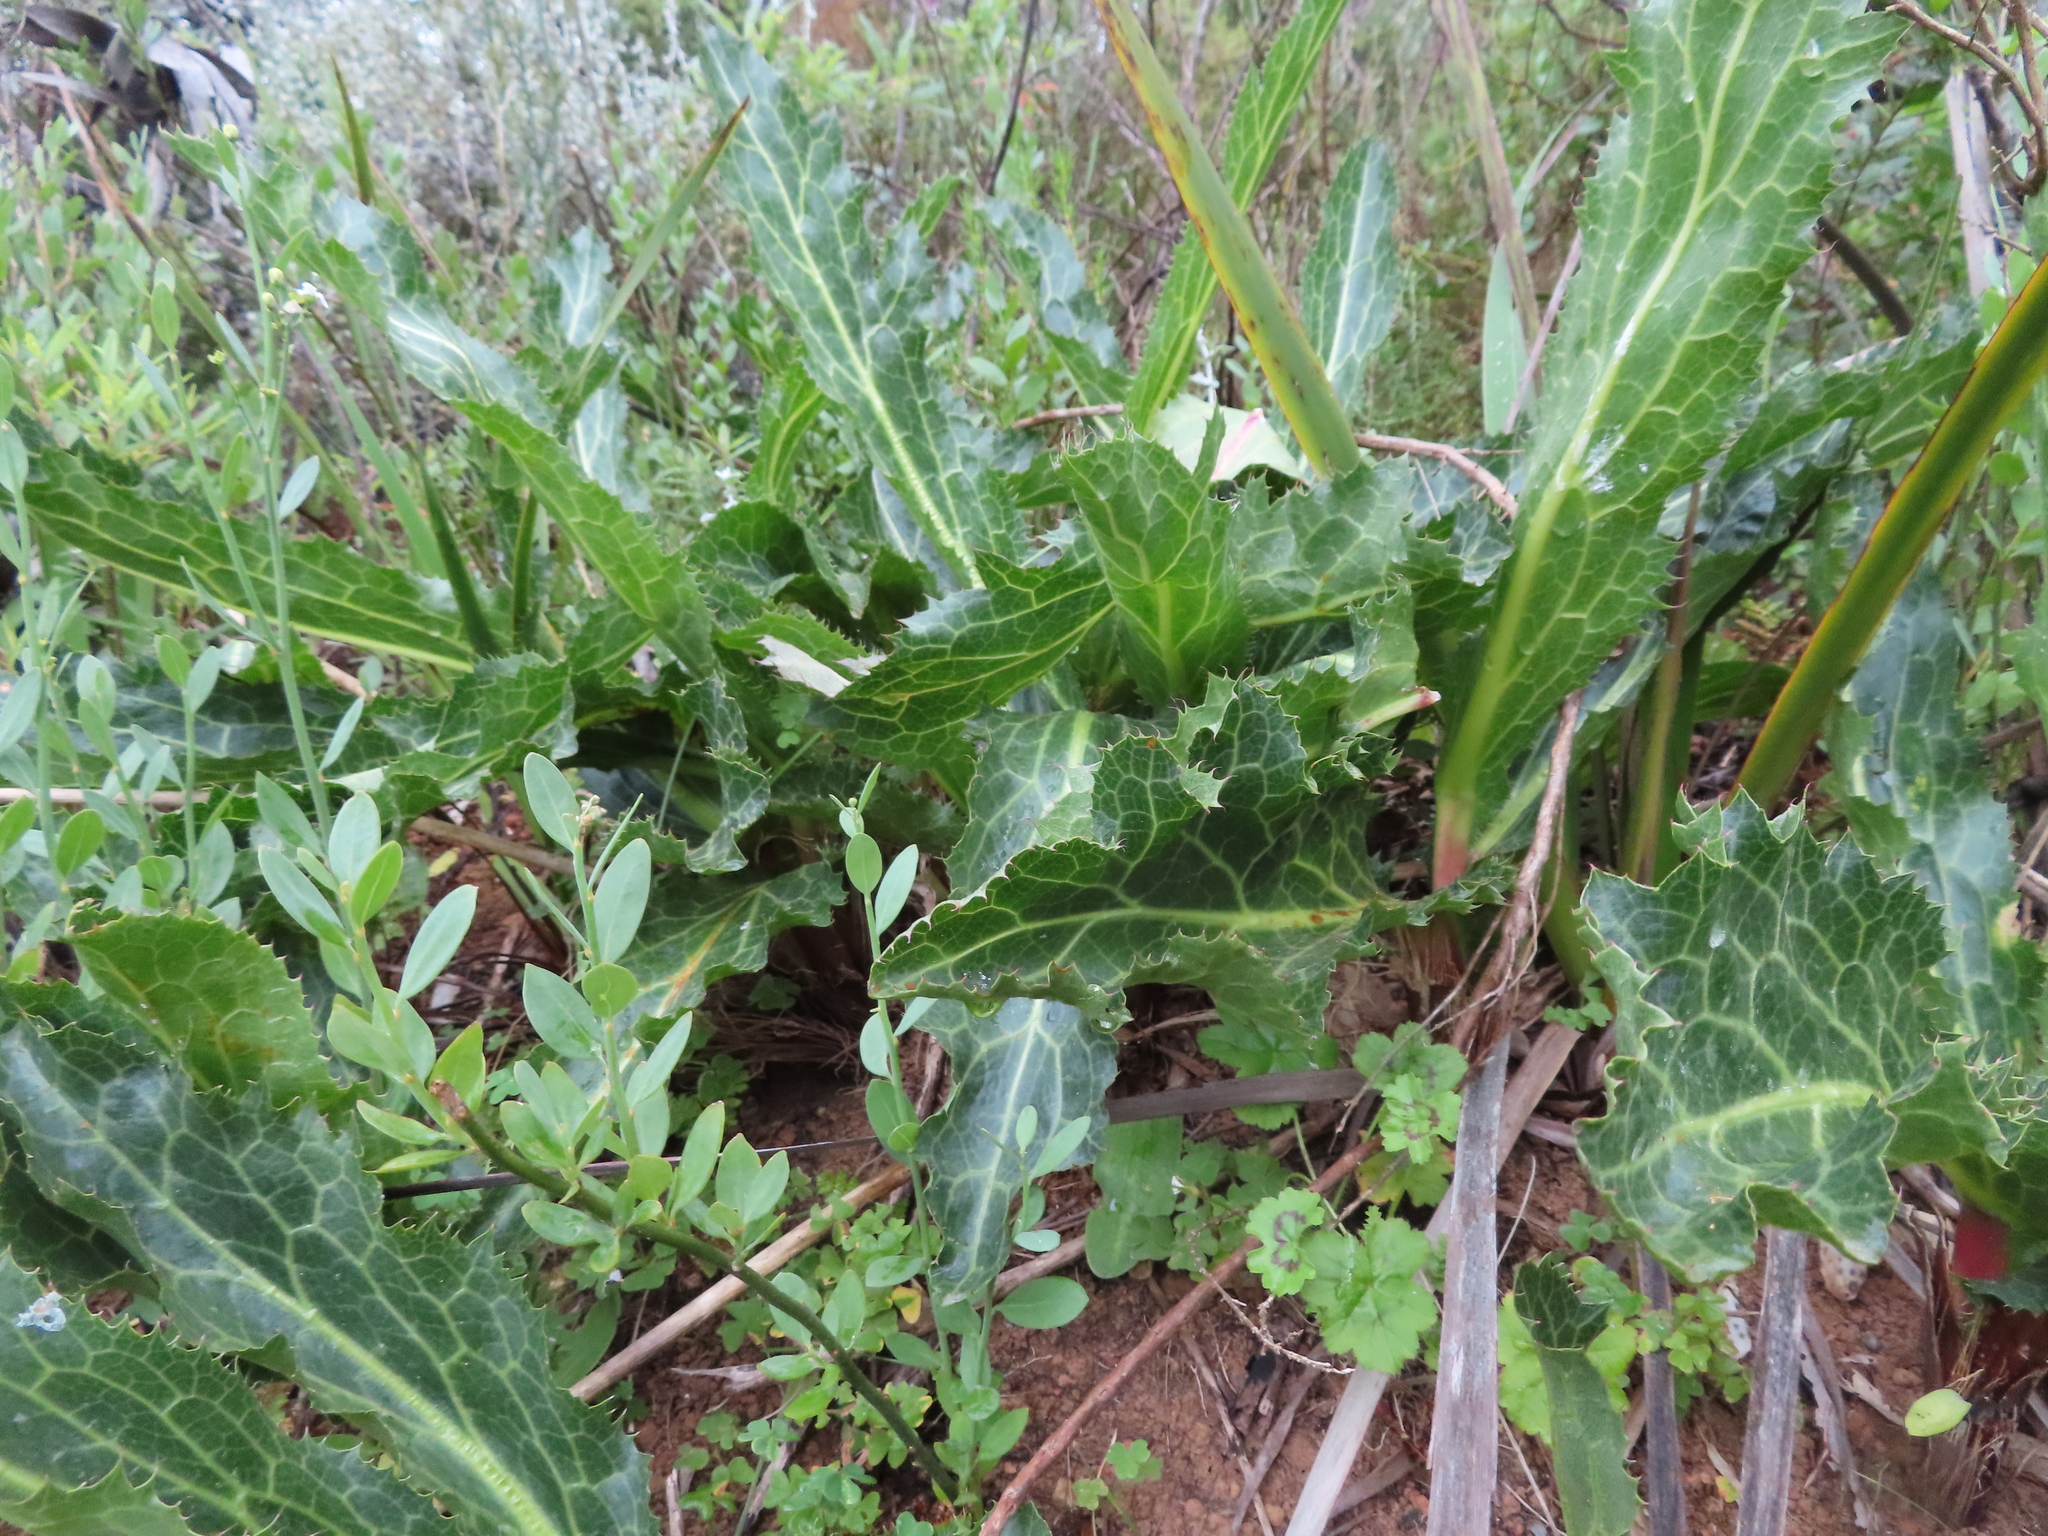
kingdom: Plantae
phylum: Tracheophyta
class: Magnoliopsida
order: Apiales
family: Apiaceae
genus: Lichtensteinia
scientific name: Lichtensteinia lacera
